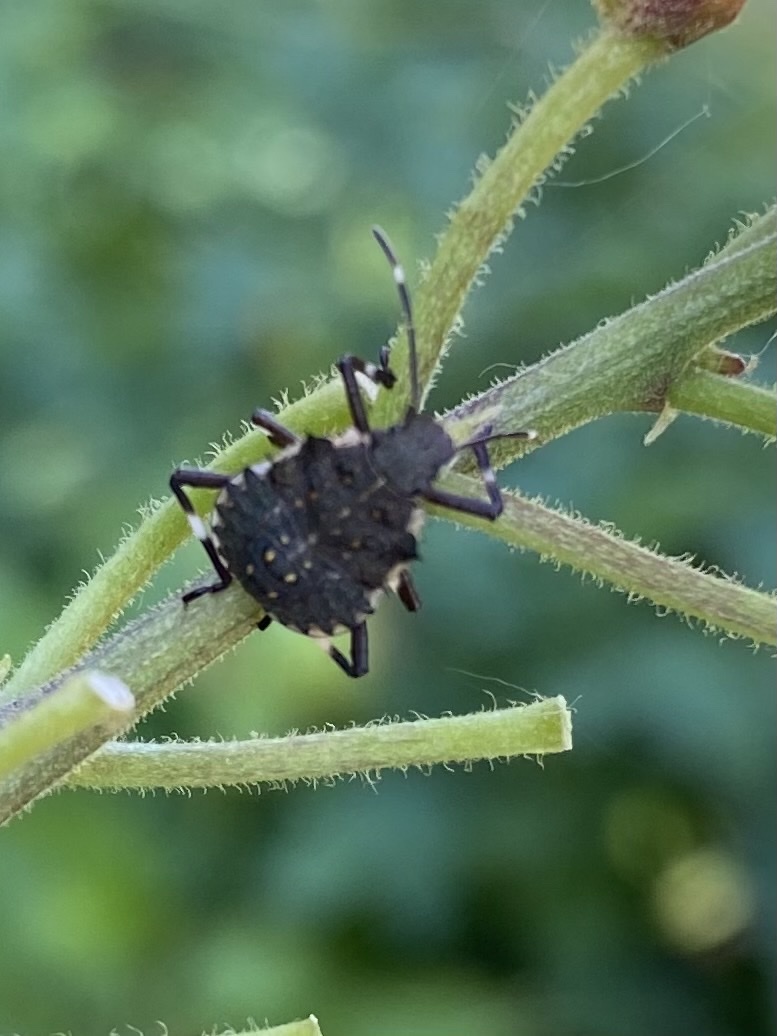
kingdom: Animalia
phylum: Arthropoda
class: Insecta
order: Hemiptera
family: Pentatomidae
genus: Halyomorpha
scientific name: Halyomorpha halys
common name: Brown marmorated stink bug
